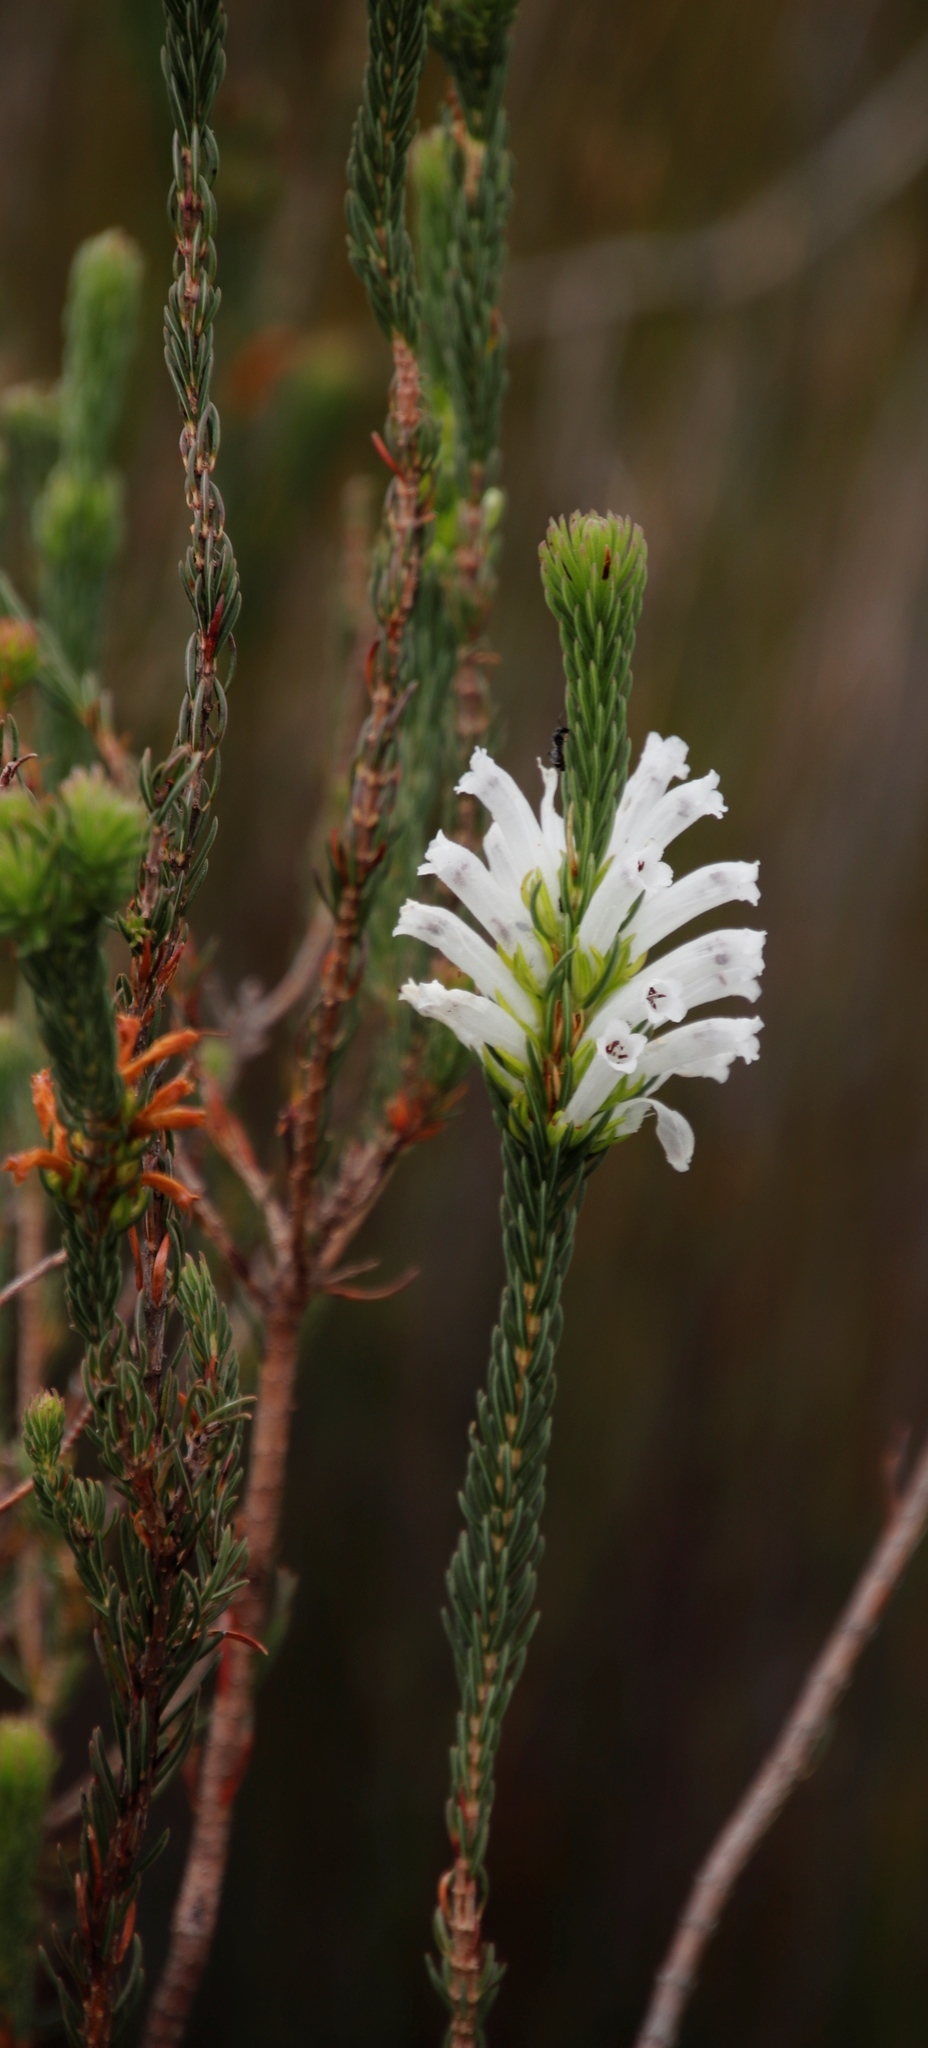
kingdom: Plantae
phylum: Tracheophyta
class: Magnoliopsida
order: Ericales
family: Ericaceae
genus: Erica
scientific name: Erica viscaria
